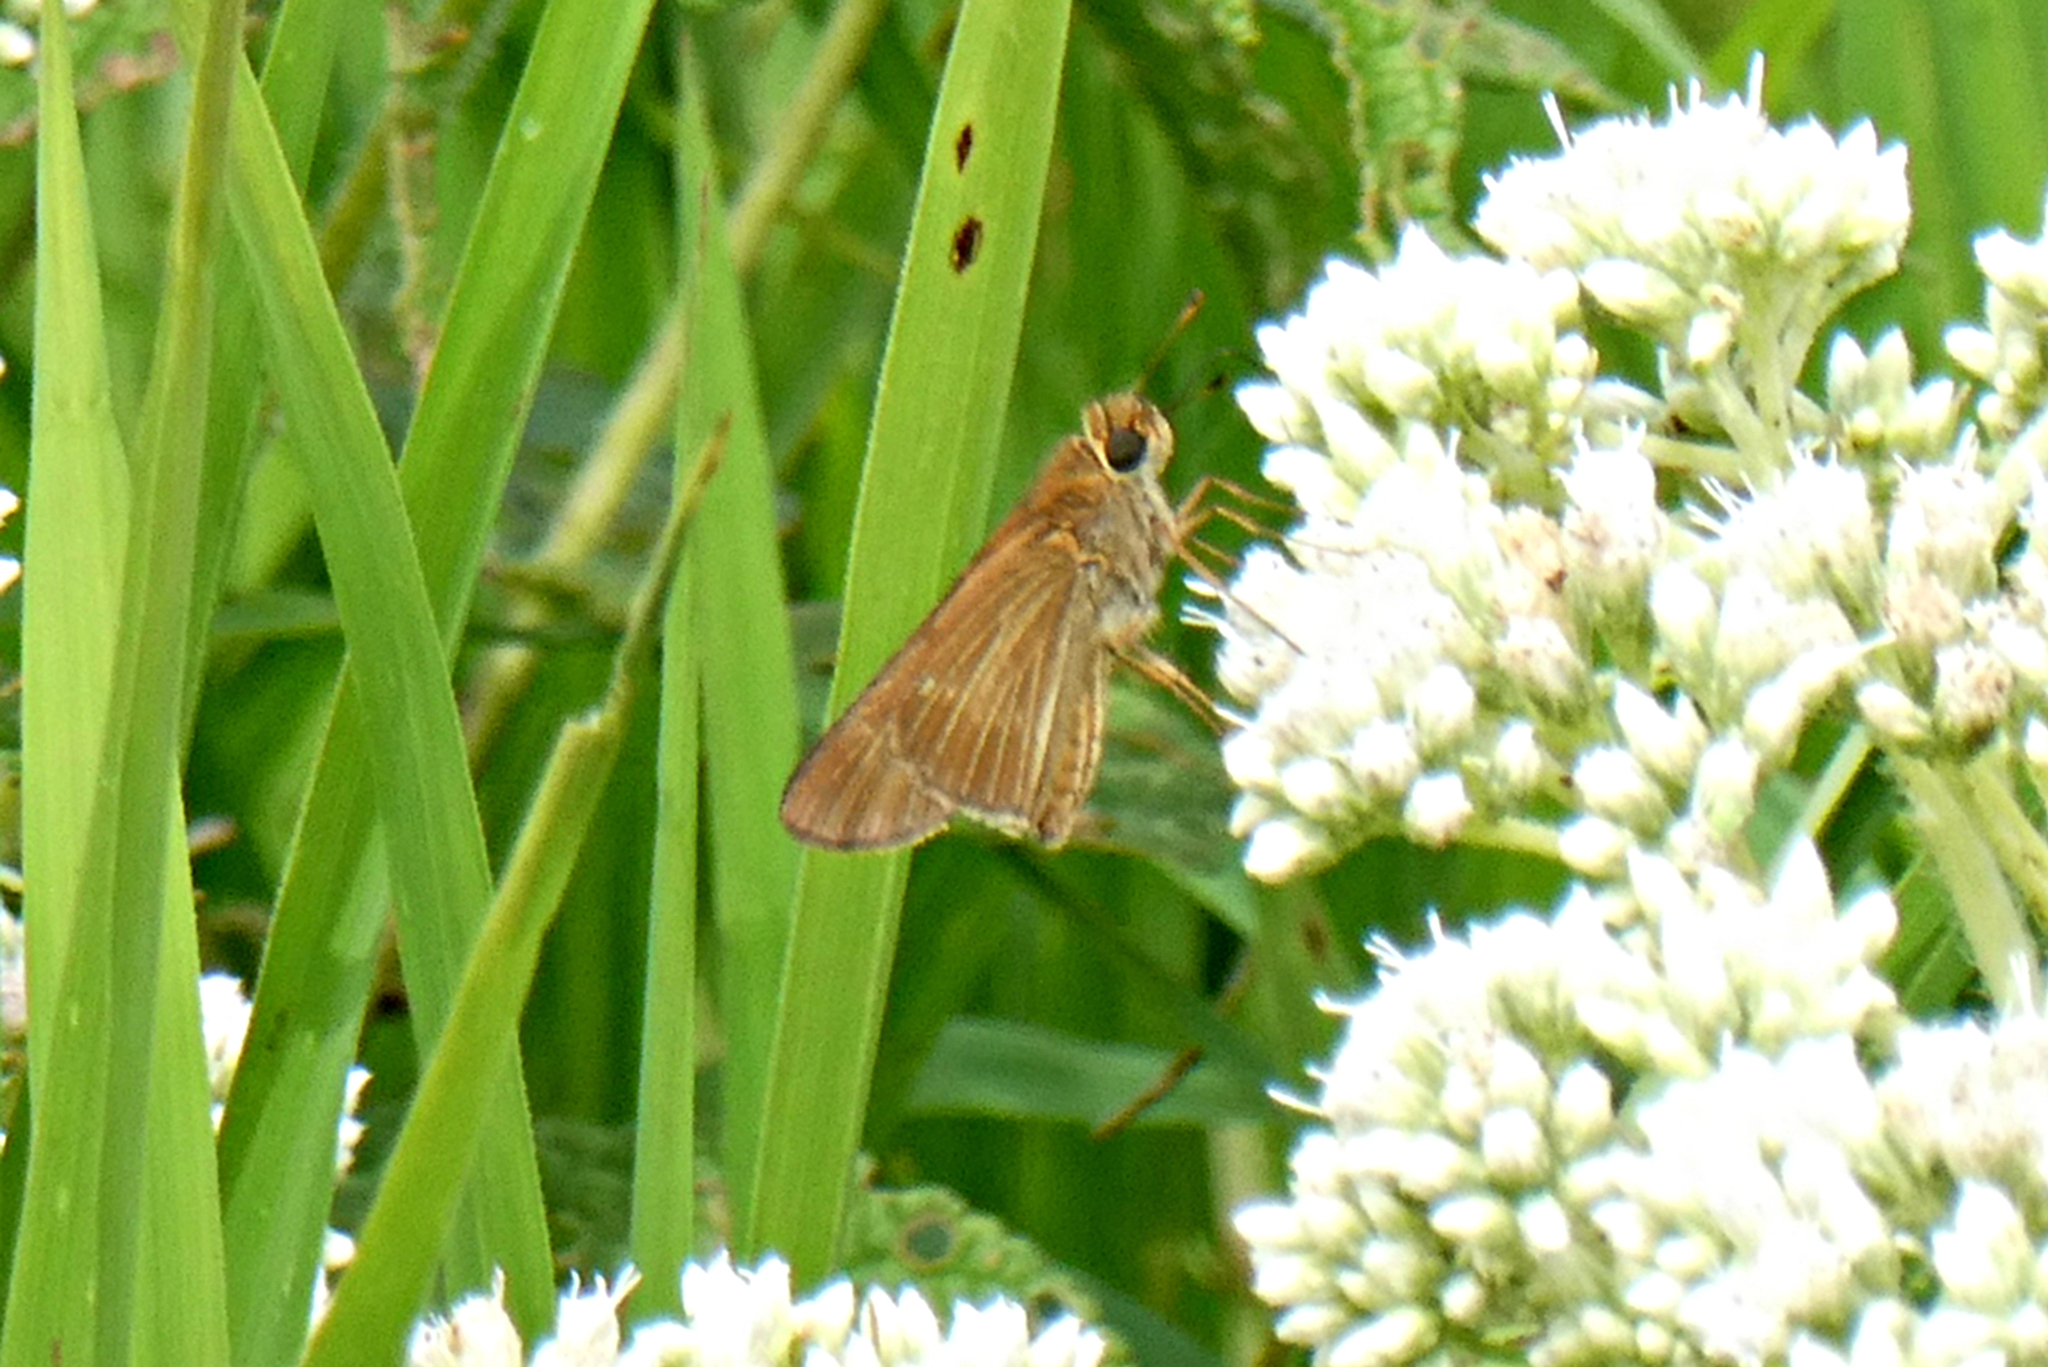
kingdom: Animalia
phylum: Arthropoda
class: Insecta
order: Lepidoptera
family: Hesperiidae
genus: Panoquina
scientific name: Panoquina ocola
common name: Ocola skipper
